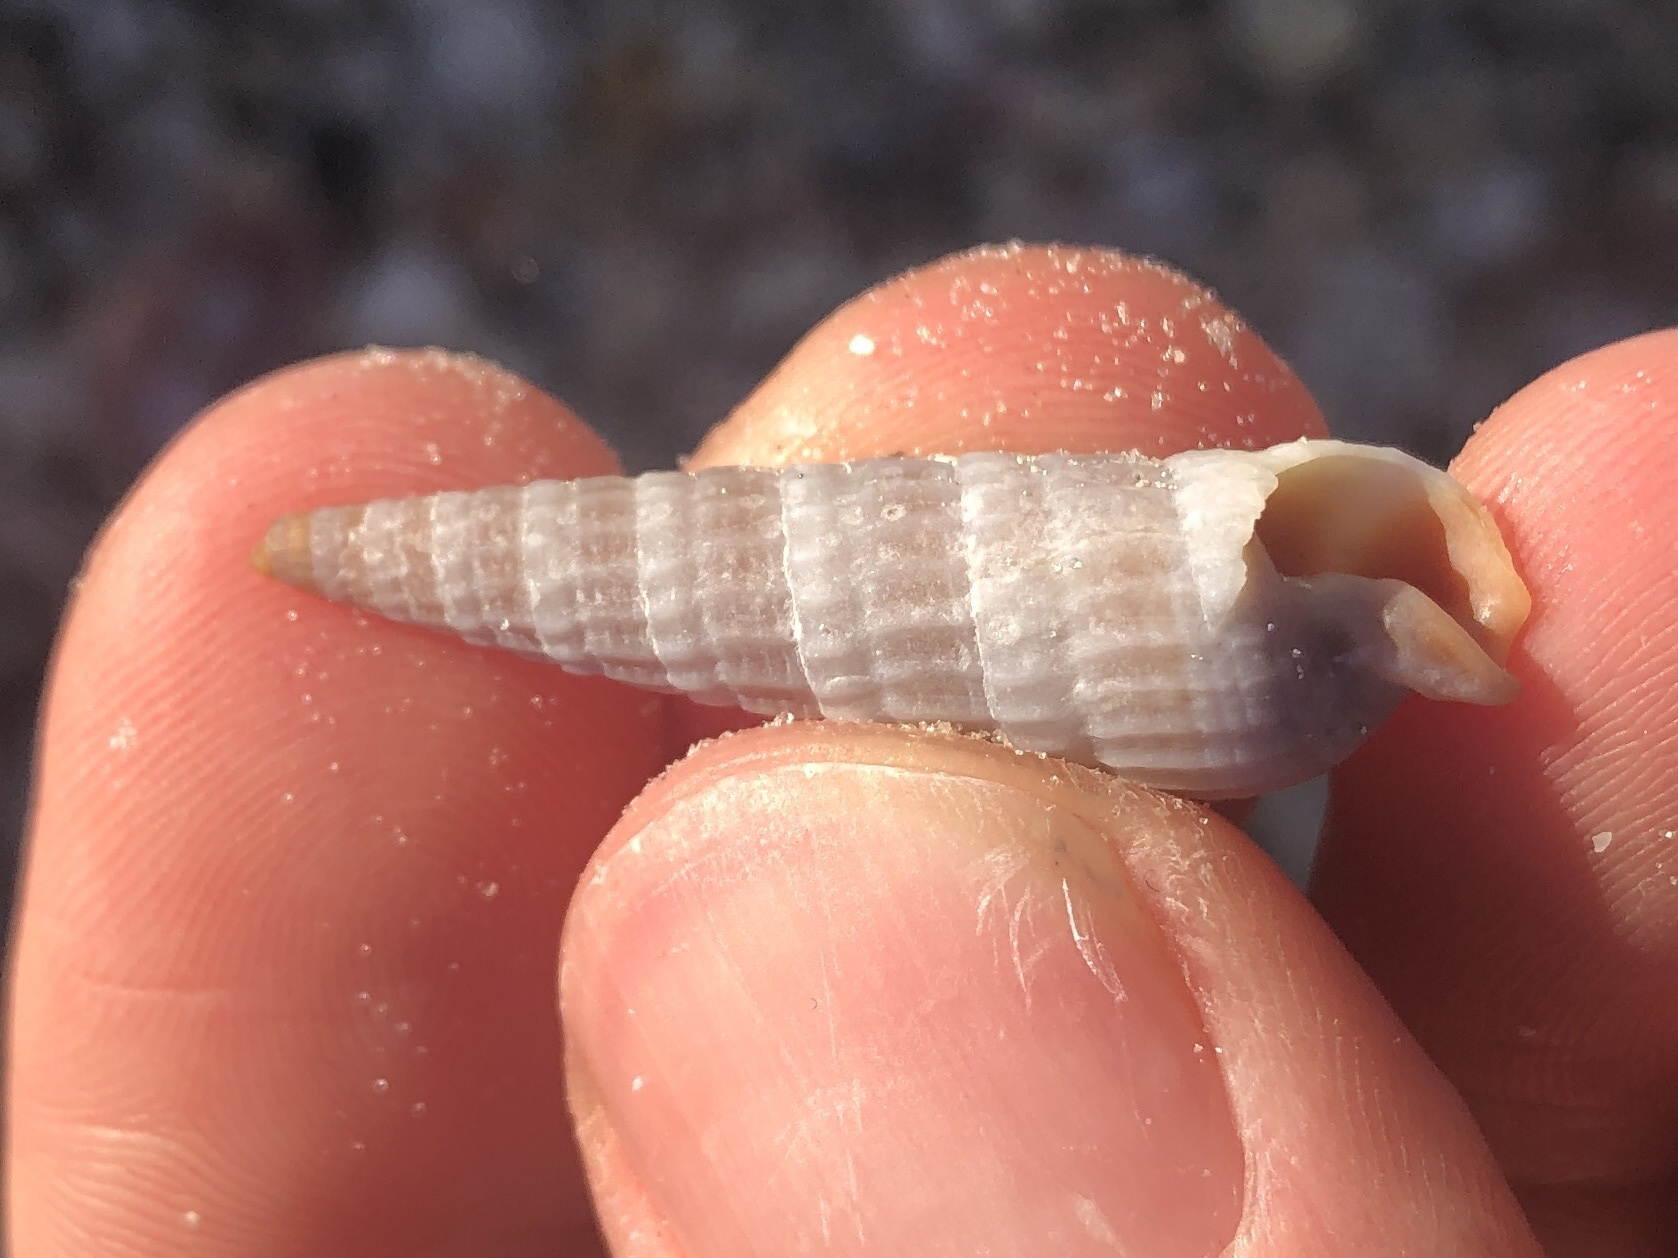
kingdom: Animalia
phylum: Mollusca
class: Gastropoda
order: Neogastropoda
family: Terebridae
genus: Neoterebra
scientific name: Neoterebra dislocata
